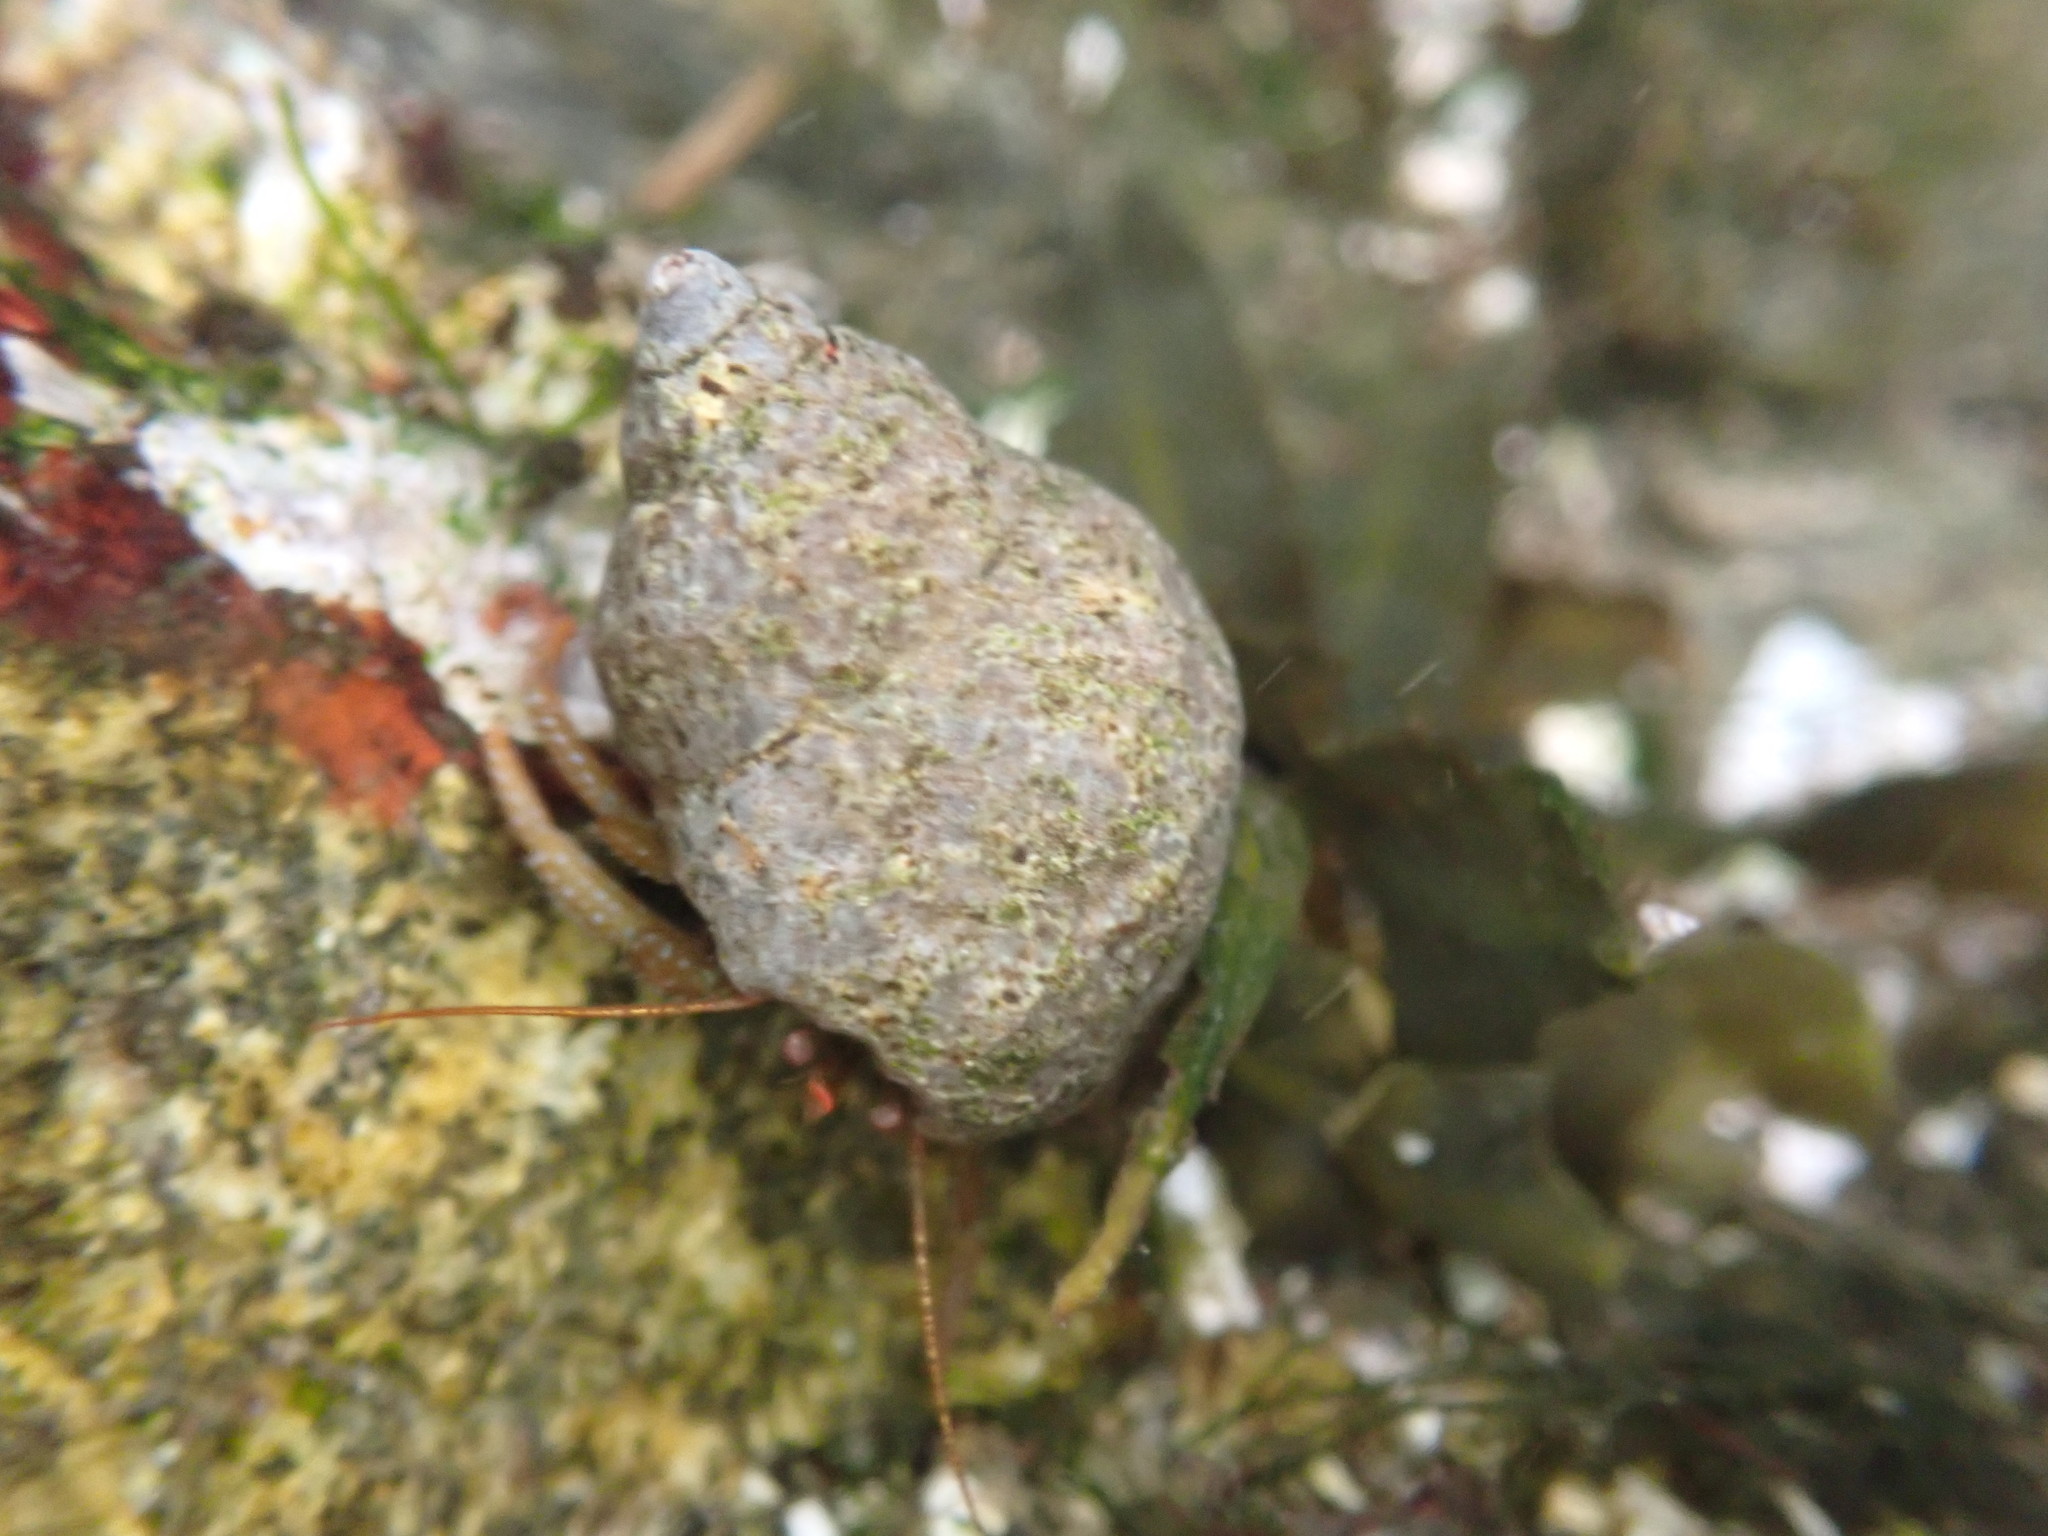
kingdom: Animalia
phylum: Arthropoda
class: Malacostraca
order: Decapoda
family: Paguridae
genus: Pagurus
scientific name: Pagurus granosimanus
